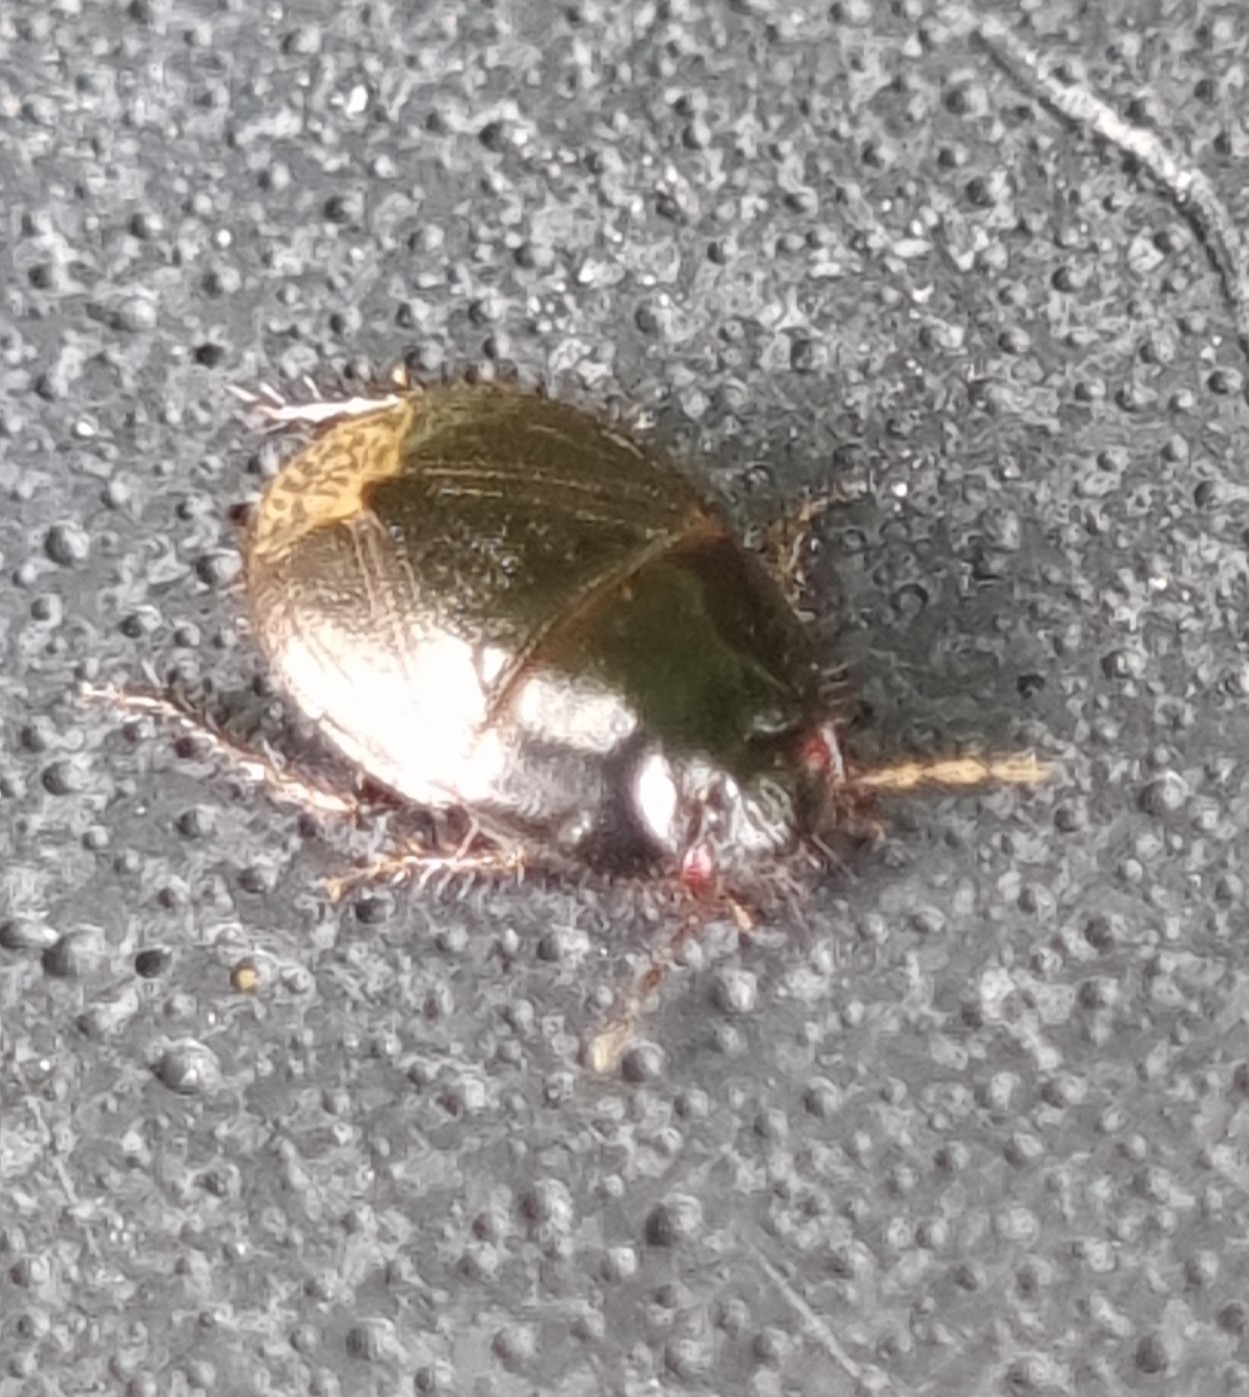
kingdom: Animalia
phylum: Arthropoda
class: Insecta
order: Hemiptera
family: Cydnidae
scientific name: Cydnidae
